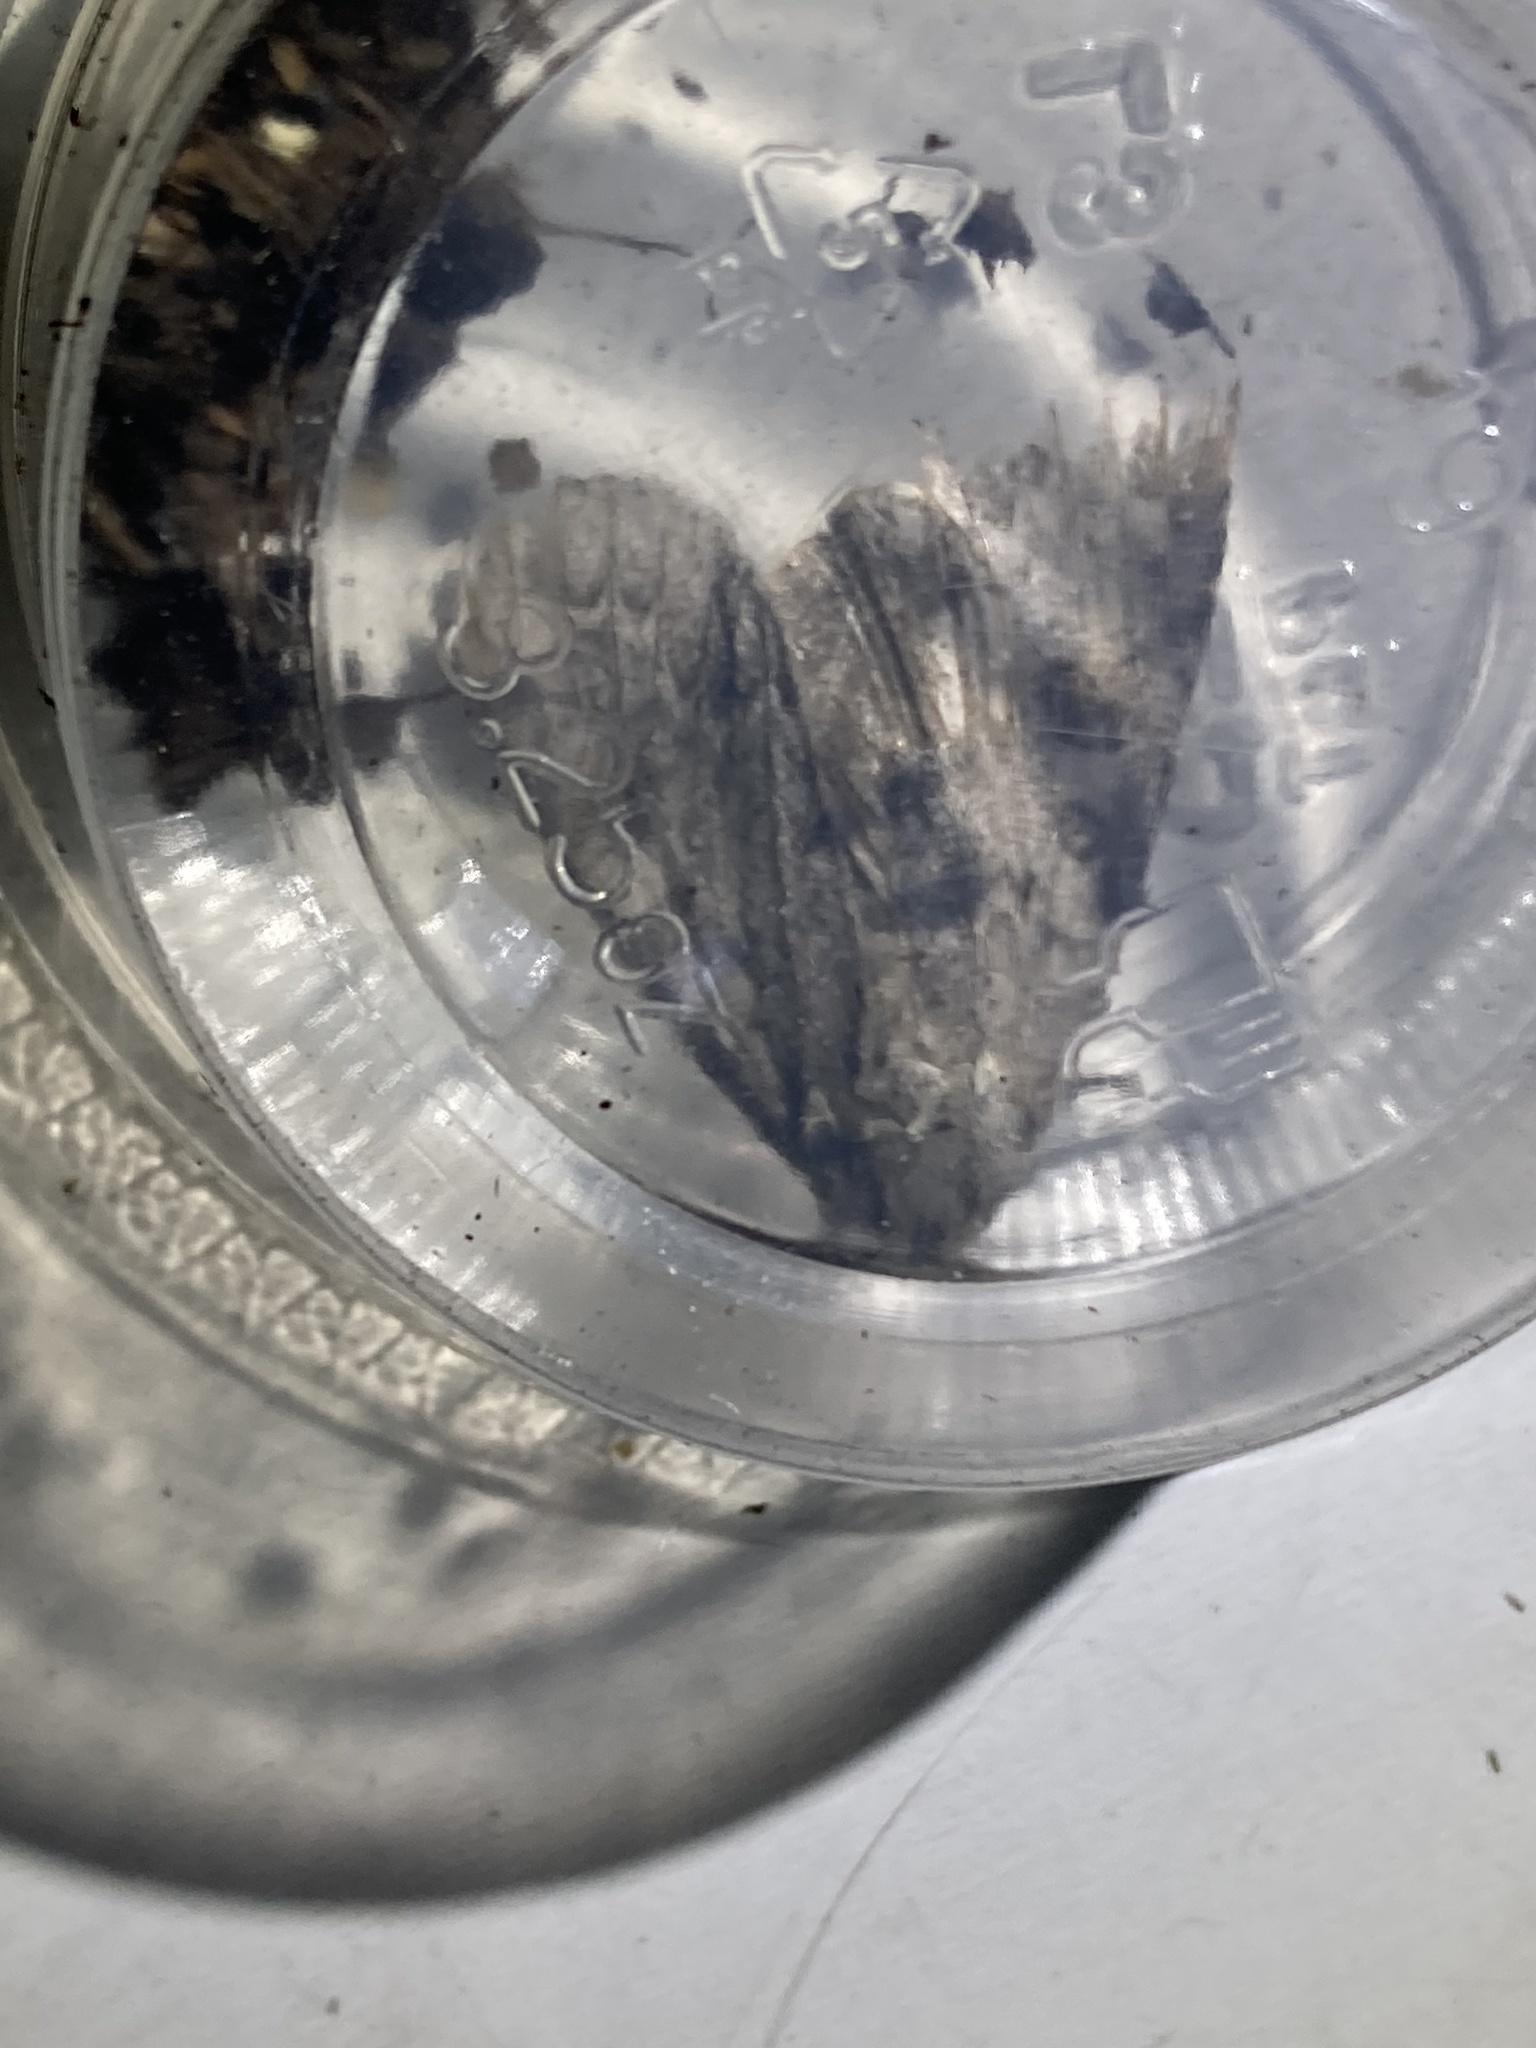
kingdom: Animalia
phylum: Arthropoda
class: Insecta
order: Lepidoptera
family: Noctuidae
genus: Acronicta
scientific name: Acronicta americana
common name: American dagger
